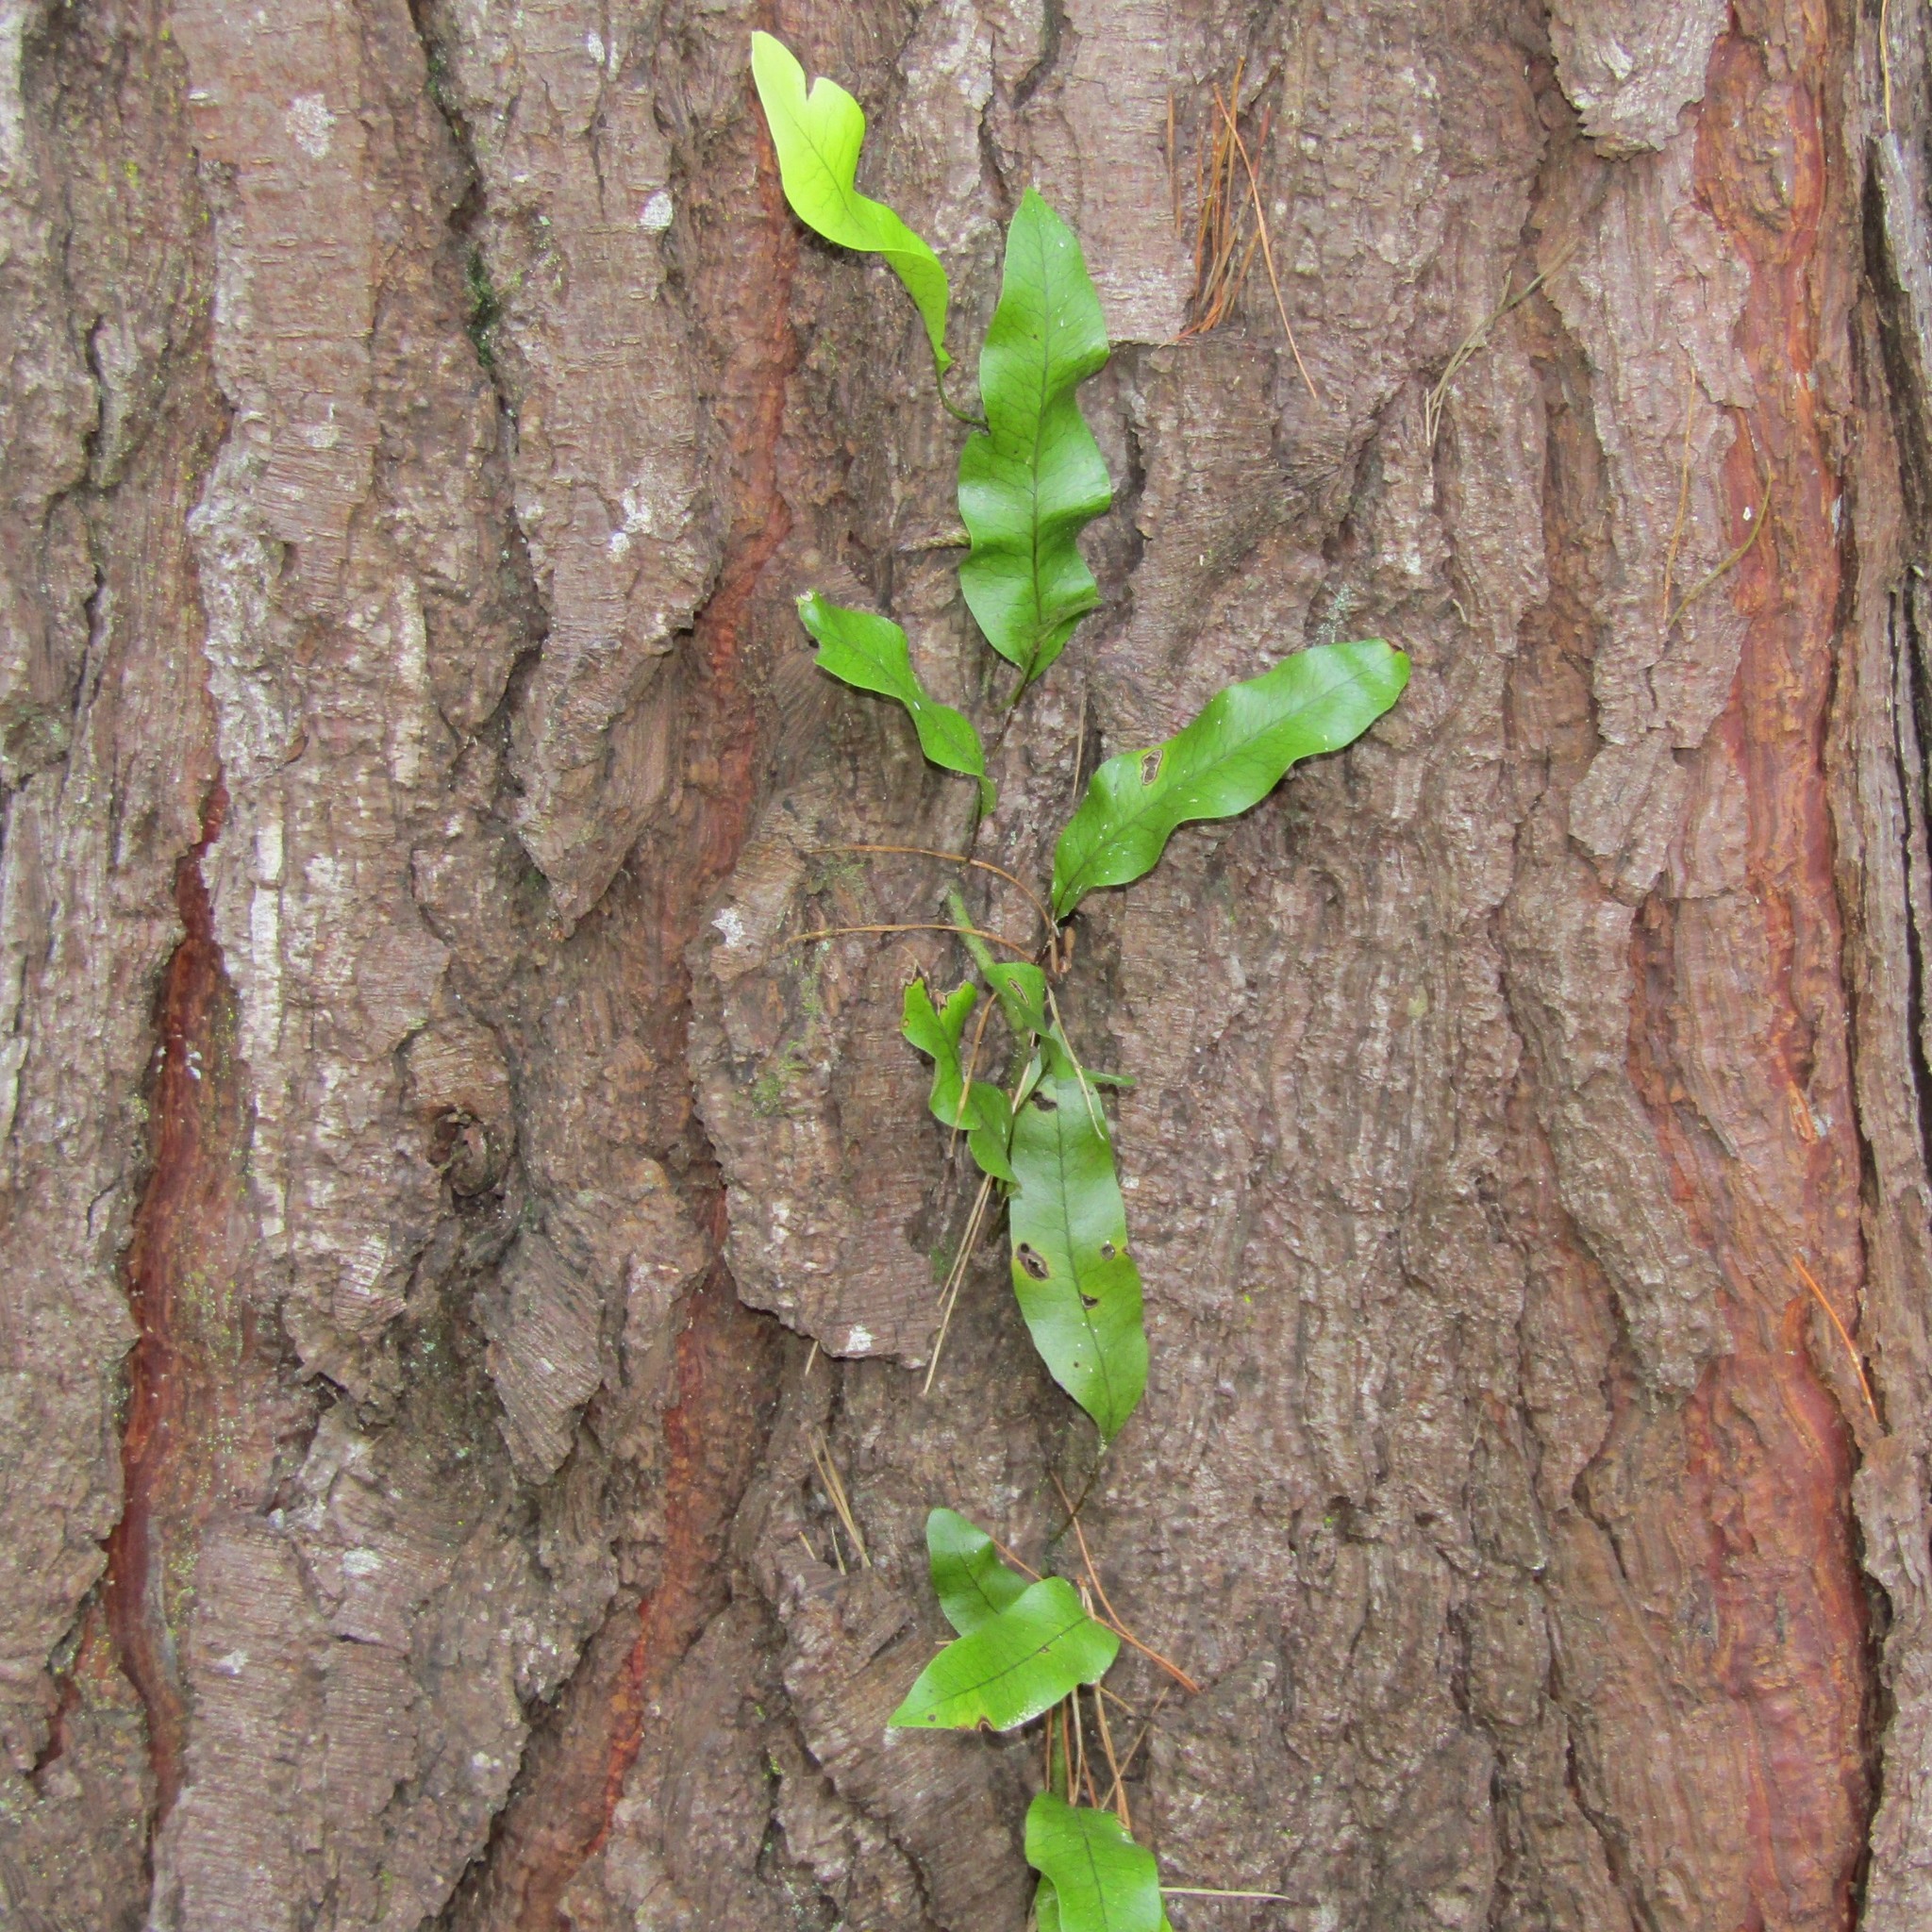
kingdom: Plantae
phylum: Tracheophyta
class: Polypodiopsida
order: Polypodiales
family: Polypodiaceae
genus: Lecanopteris
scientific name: Lecanopteris pustulata
